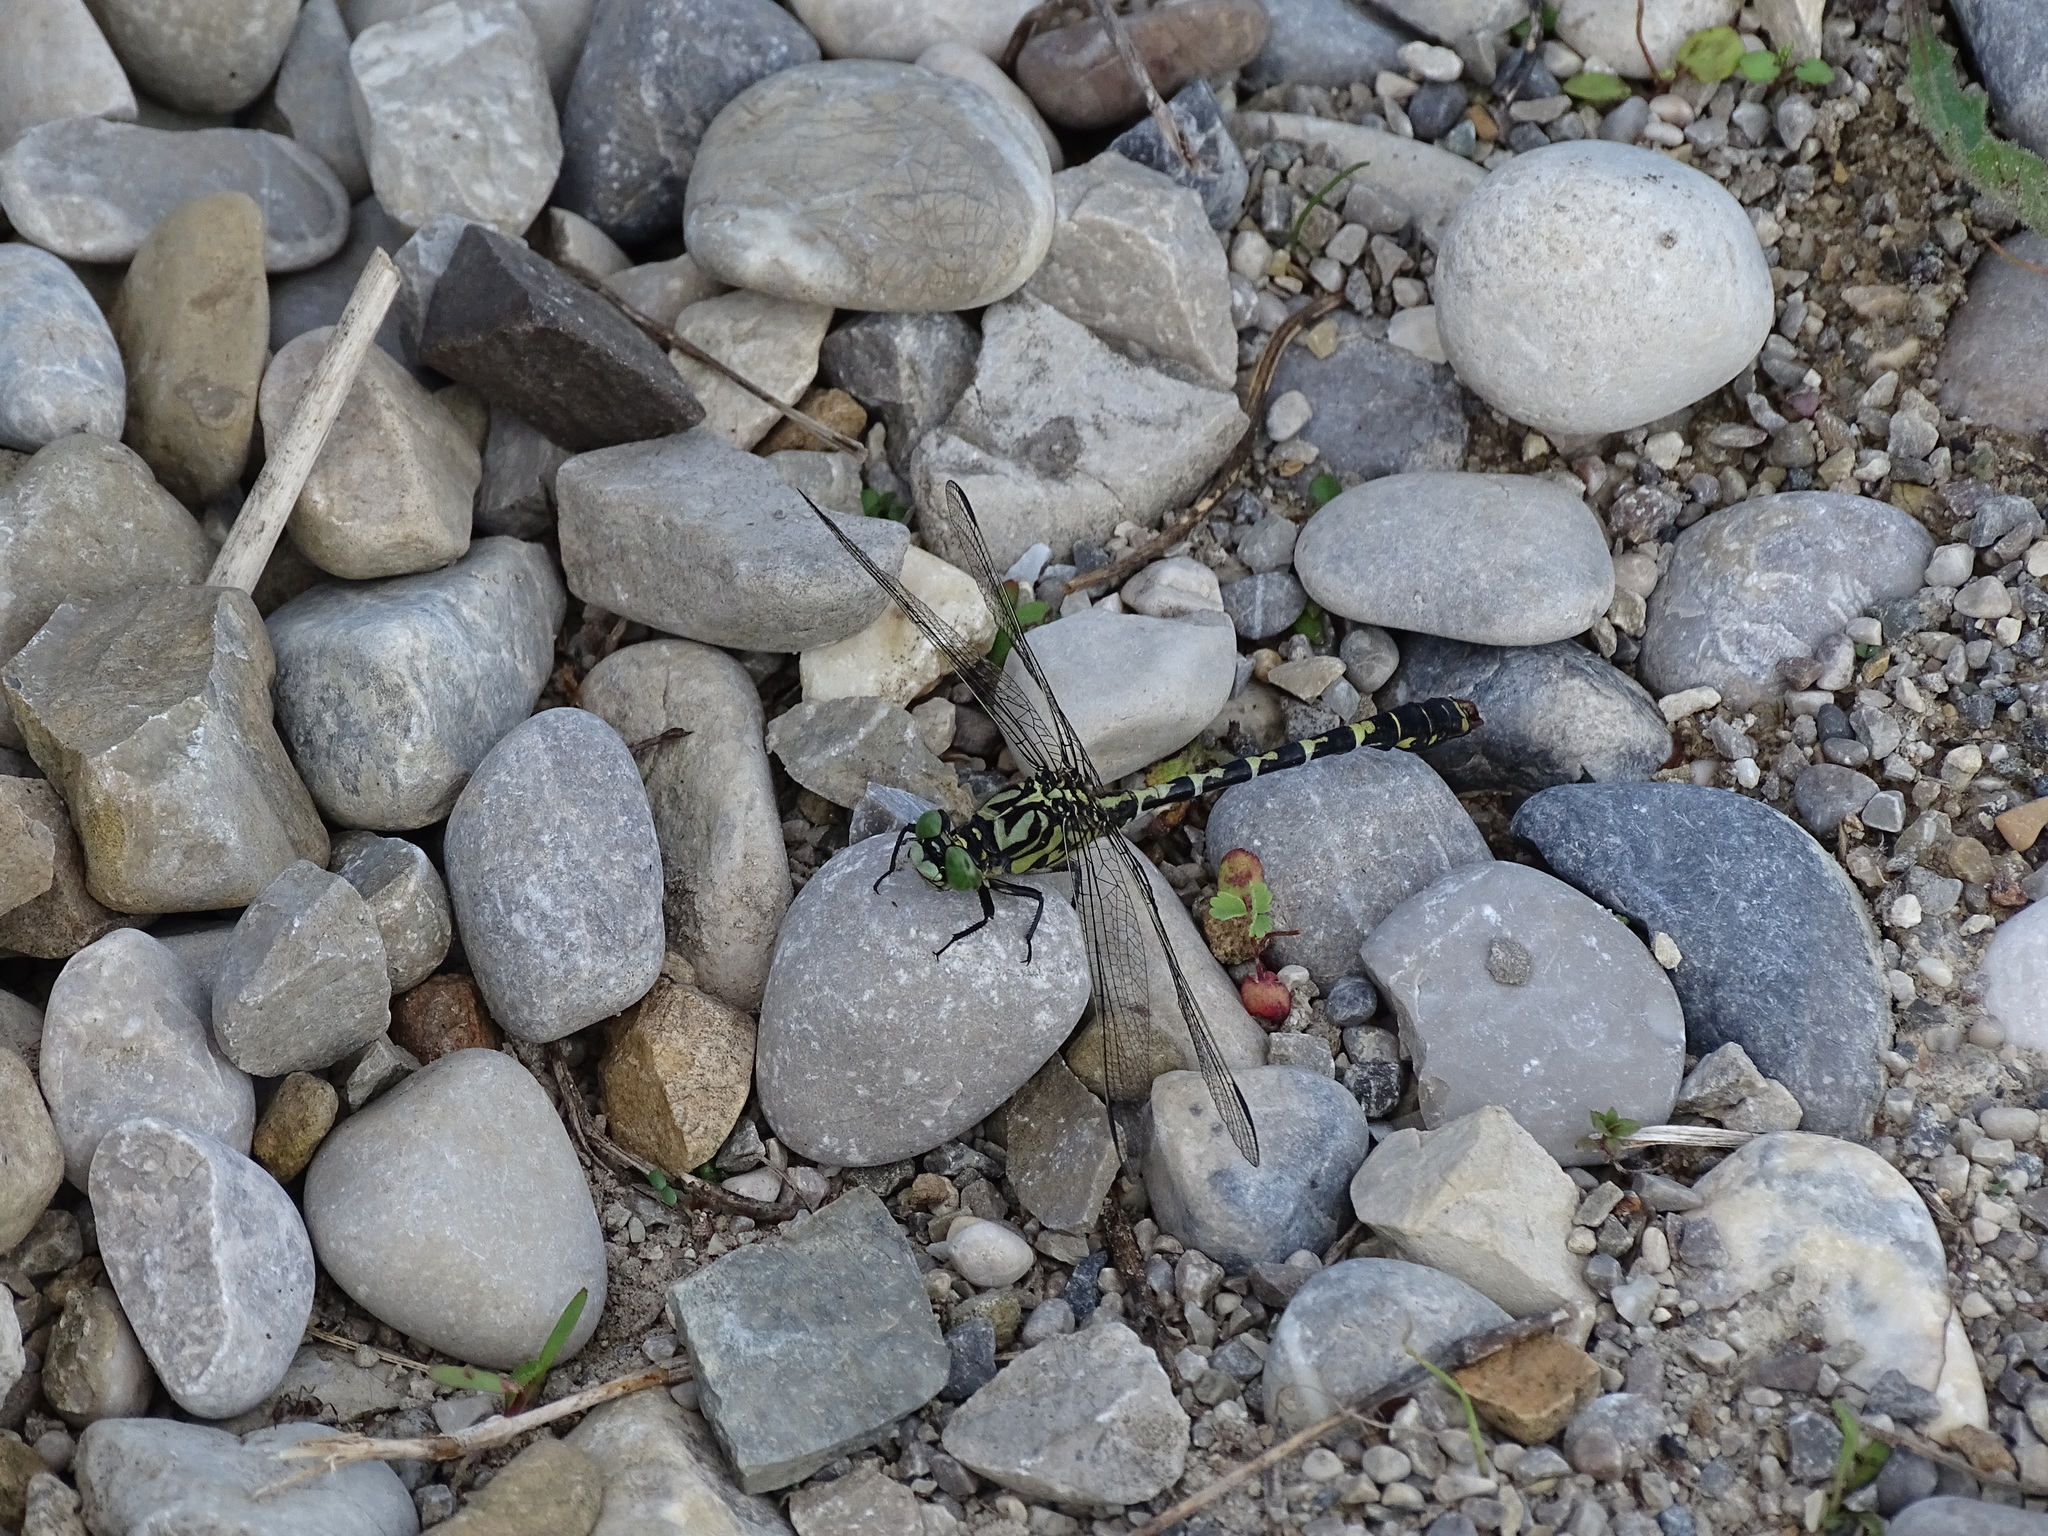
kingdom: Animalia
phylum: Arthropoda
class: Insecta
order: Odonata
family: Gomphidae
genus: Onychogomphus
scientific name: Onychogomphus forcipatus
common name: Small pincertail
